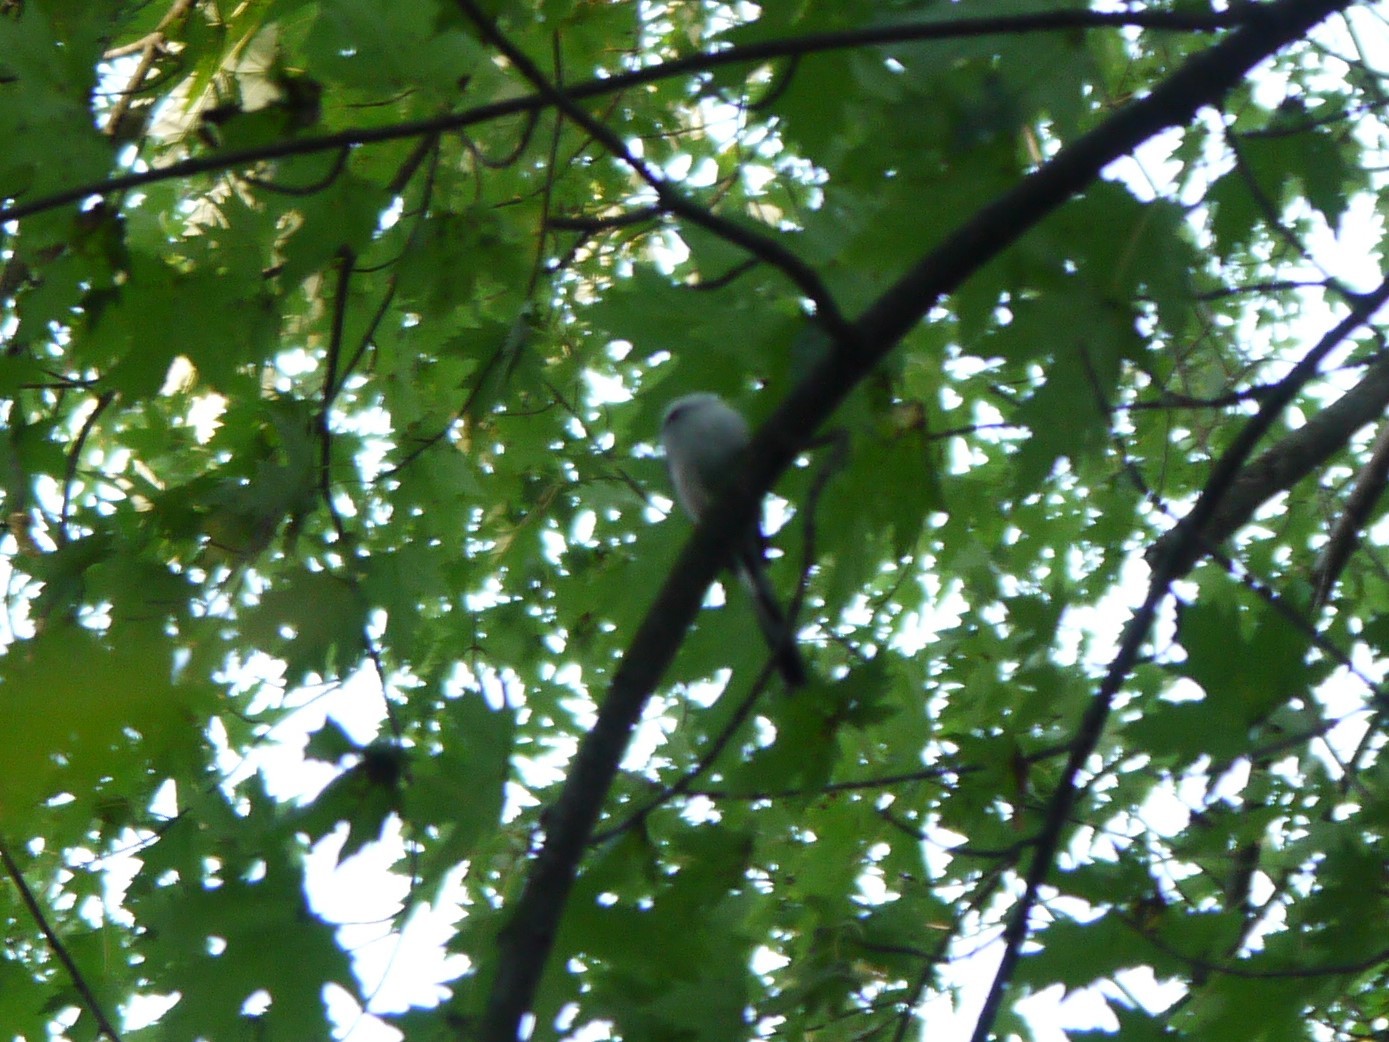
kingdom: Animalia
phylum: Chordata
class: Aves
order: Passeriformes
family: Aegithalidae
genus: Aegithalos
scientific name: Aegithalos caudatus
